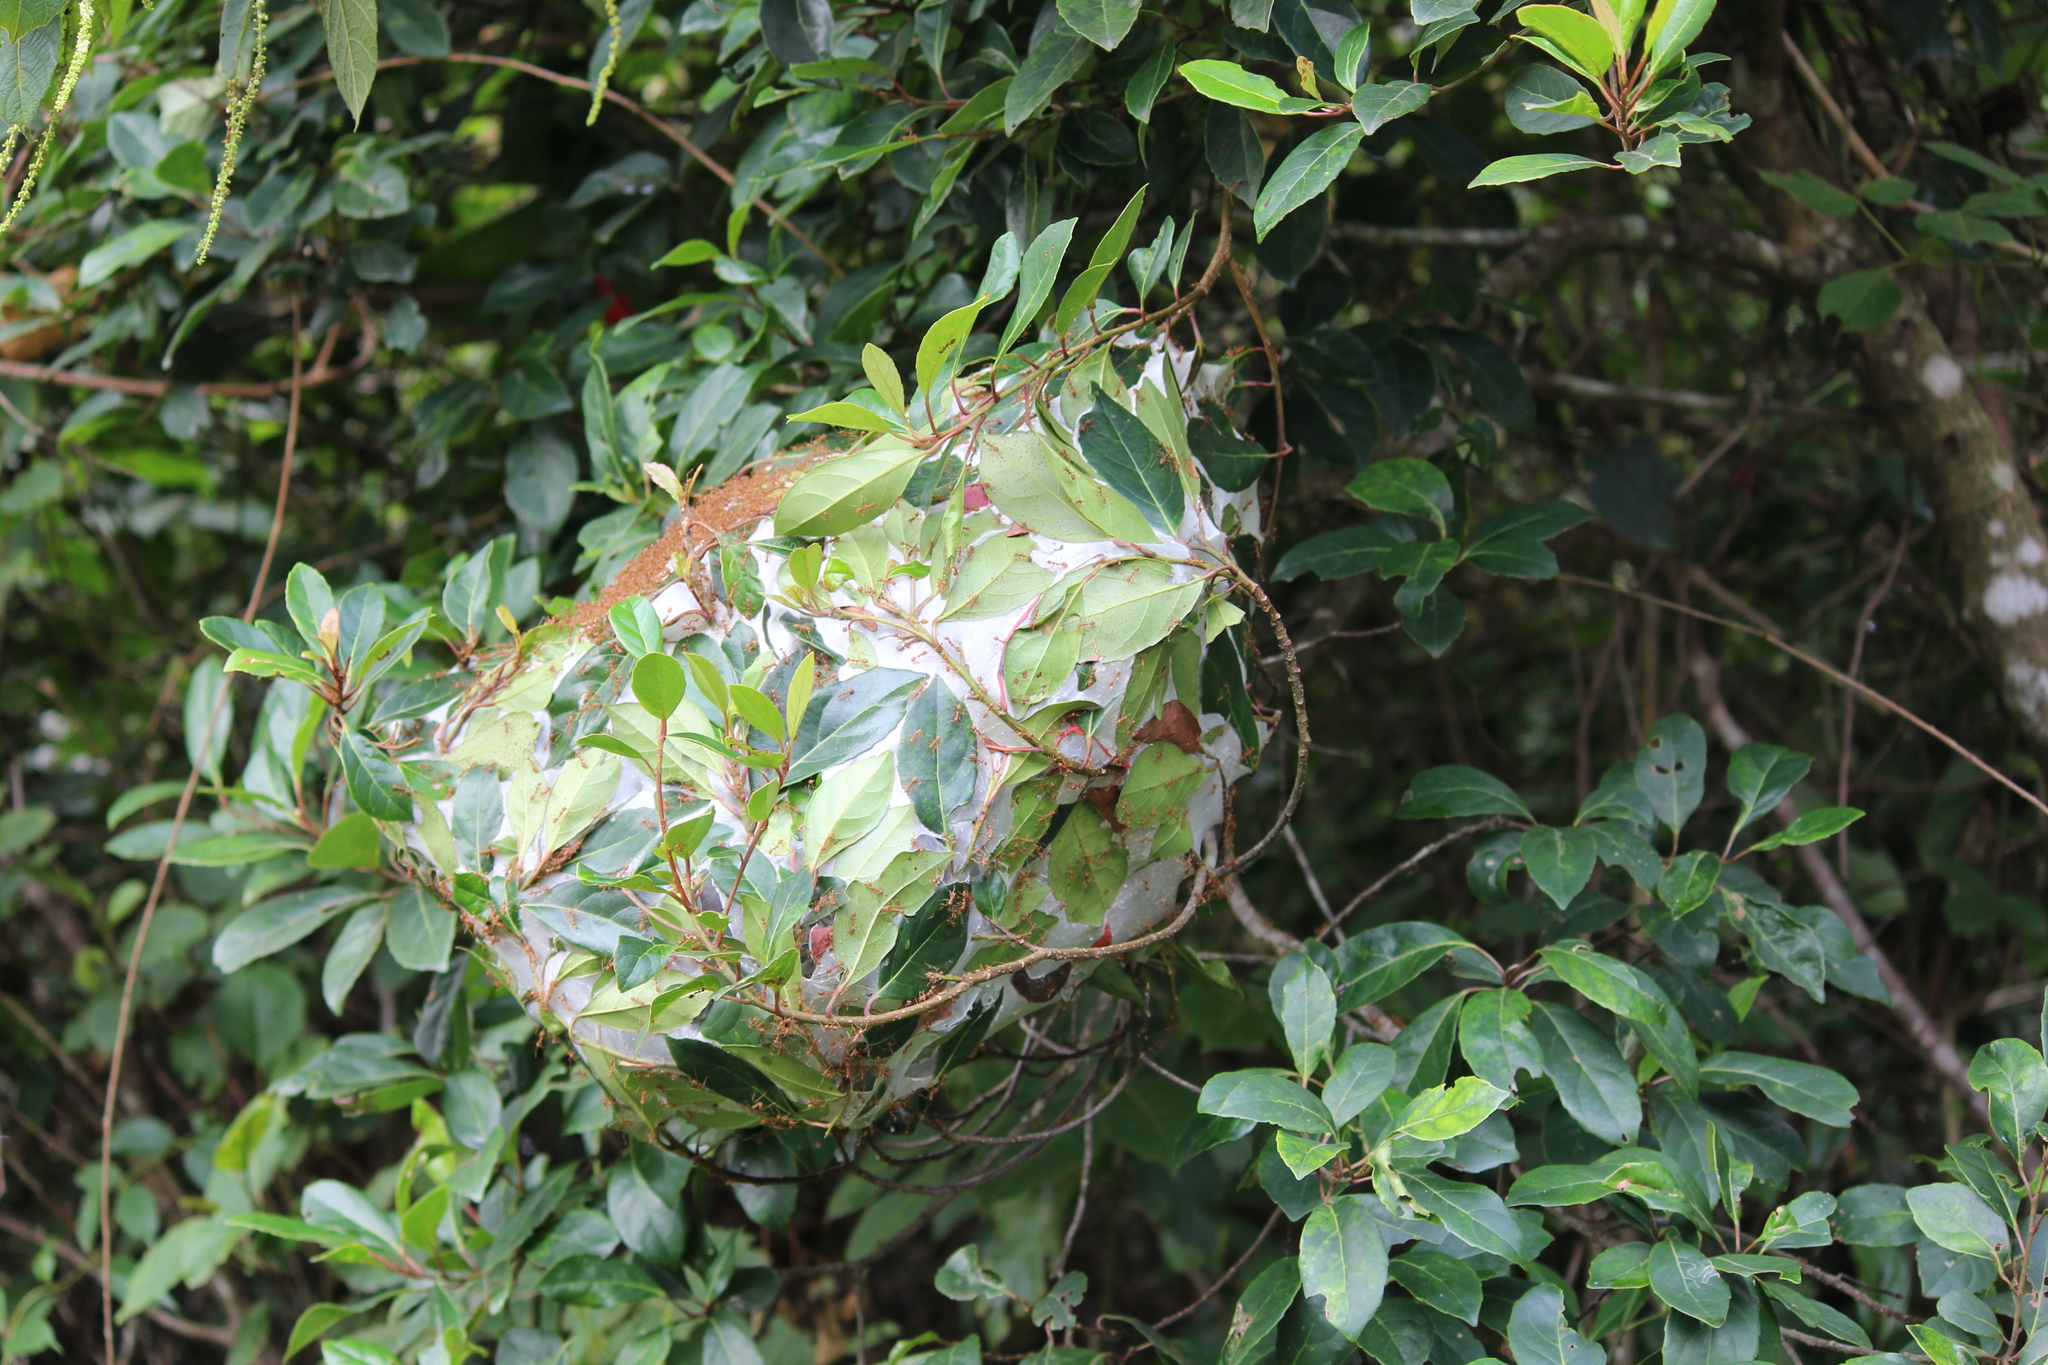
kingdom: Animalia
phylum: Arthropoda
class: Insecta
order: Hymenoptera
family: Formicidae
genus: Oecophylla
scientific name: Oecophylla smaragdina
